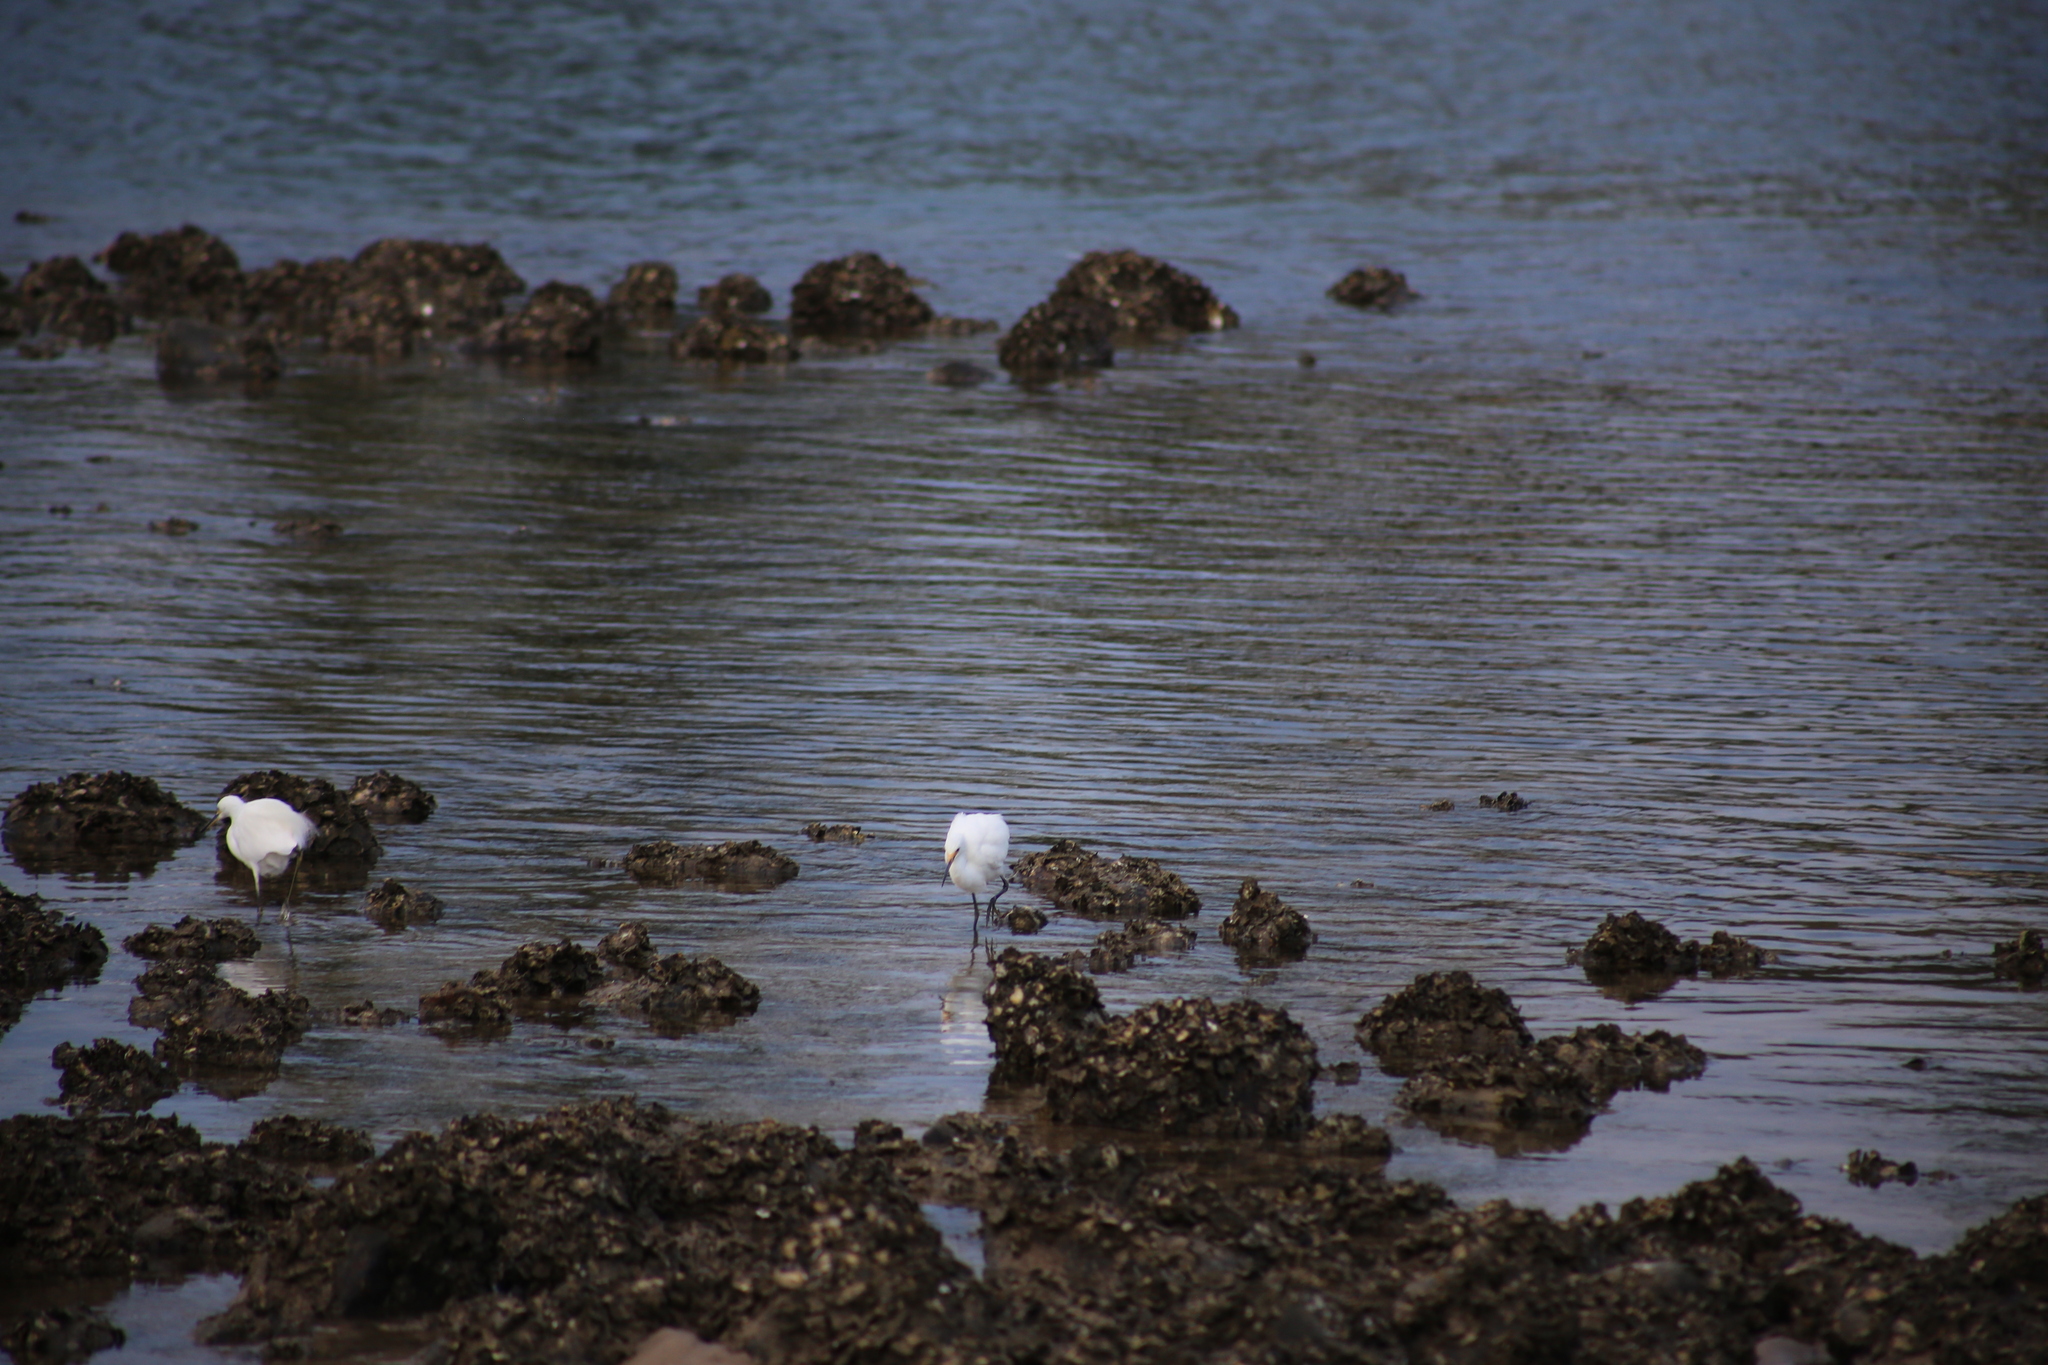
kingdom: Animalia
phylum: Chordata
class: Aves
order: Pelecaniformes
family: Ardeidae
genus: Egretta
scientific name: Egretta garzetta
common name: Little egret
